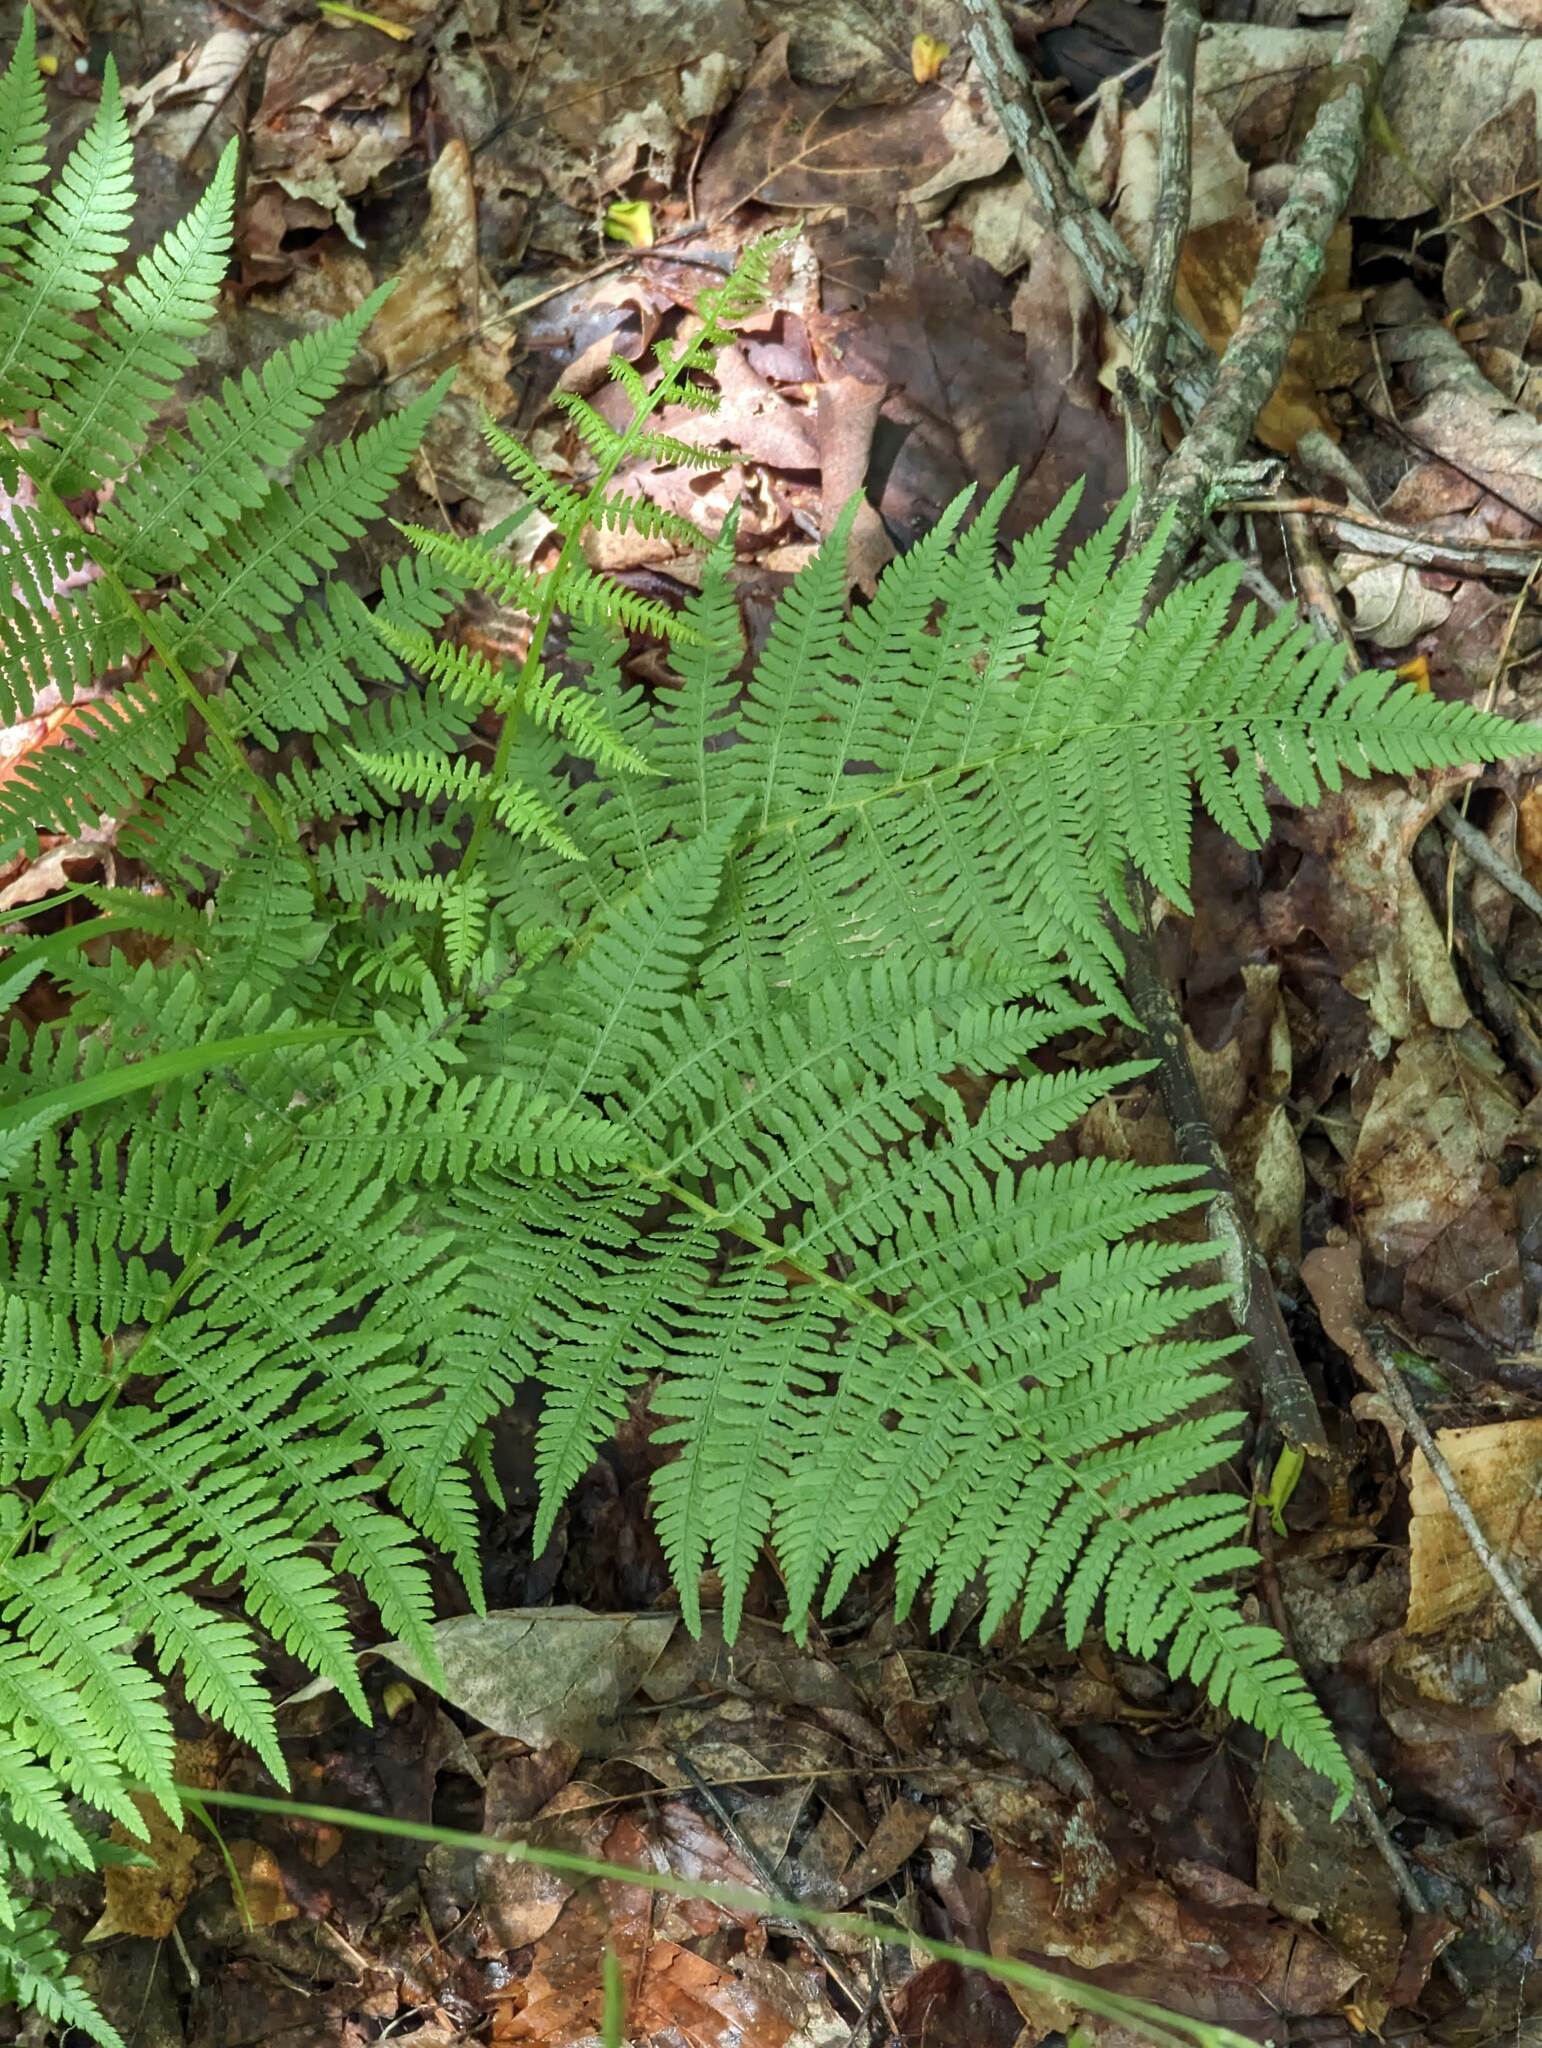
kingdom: Plantae
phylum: Tracheophyta
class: Polypodiopsida
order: Polypodiales
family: Athyriaceae
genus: Athyrium
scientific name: Athyrium angustum
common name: Northern lady fern
